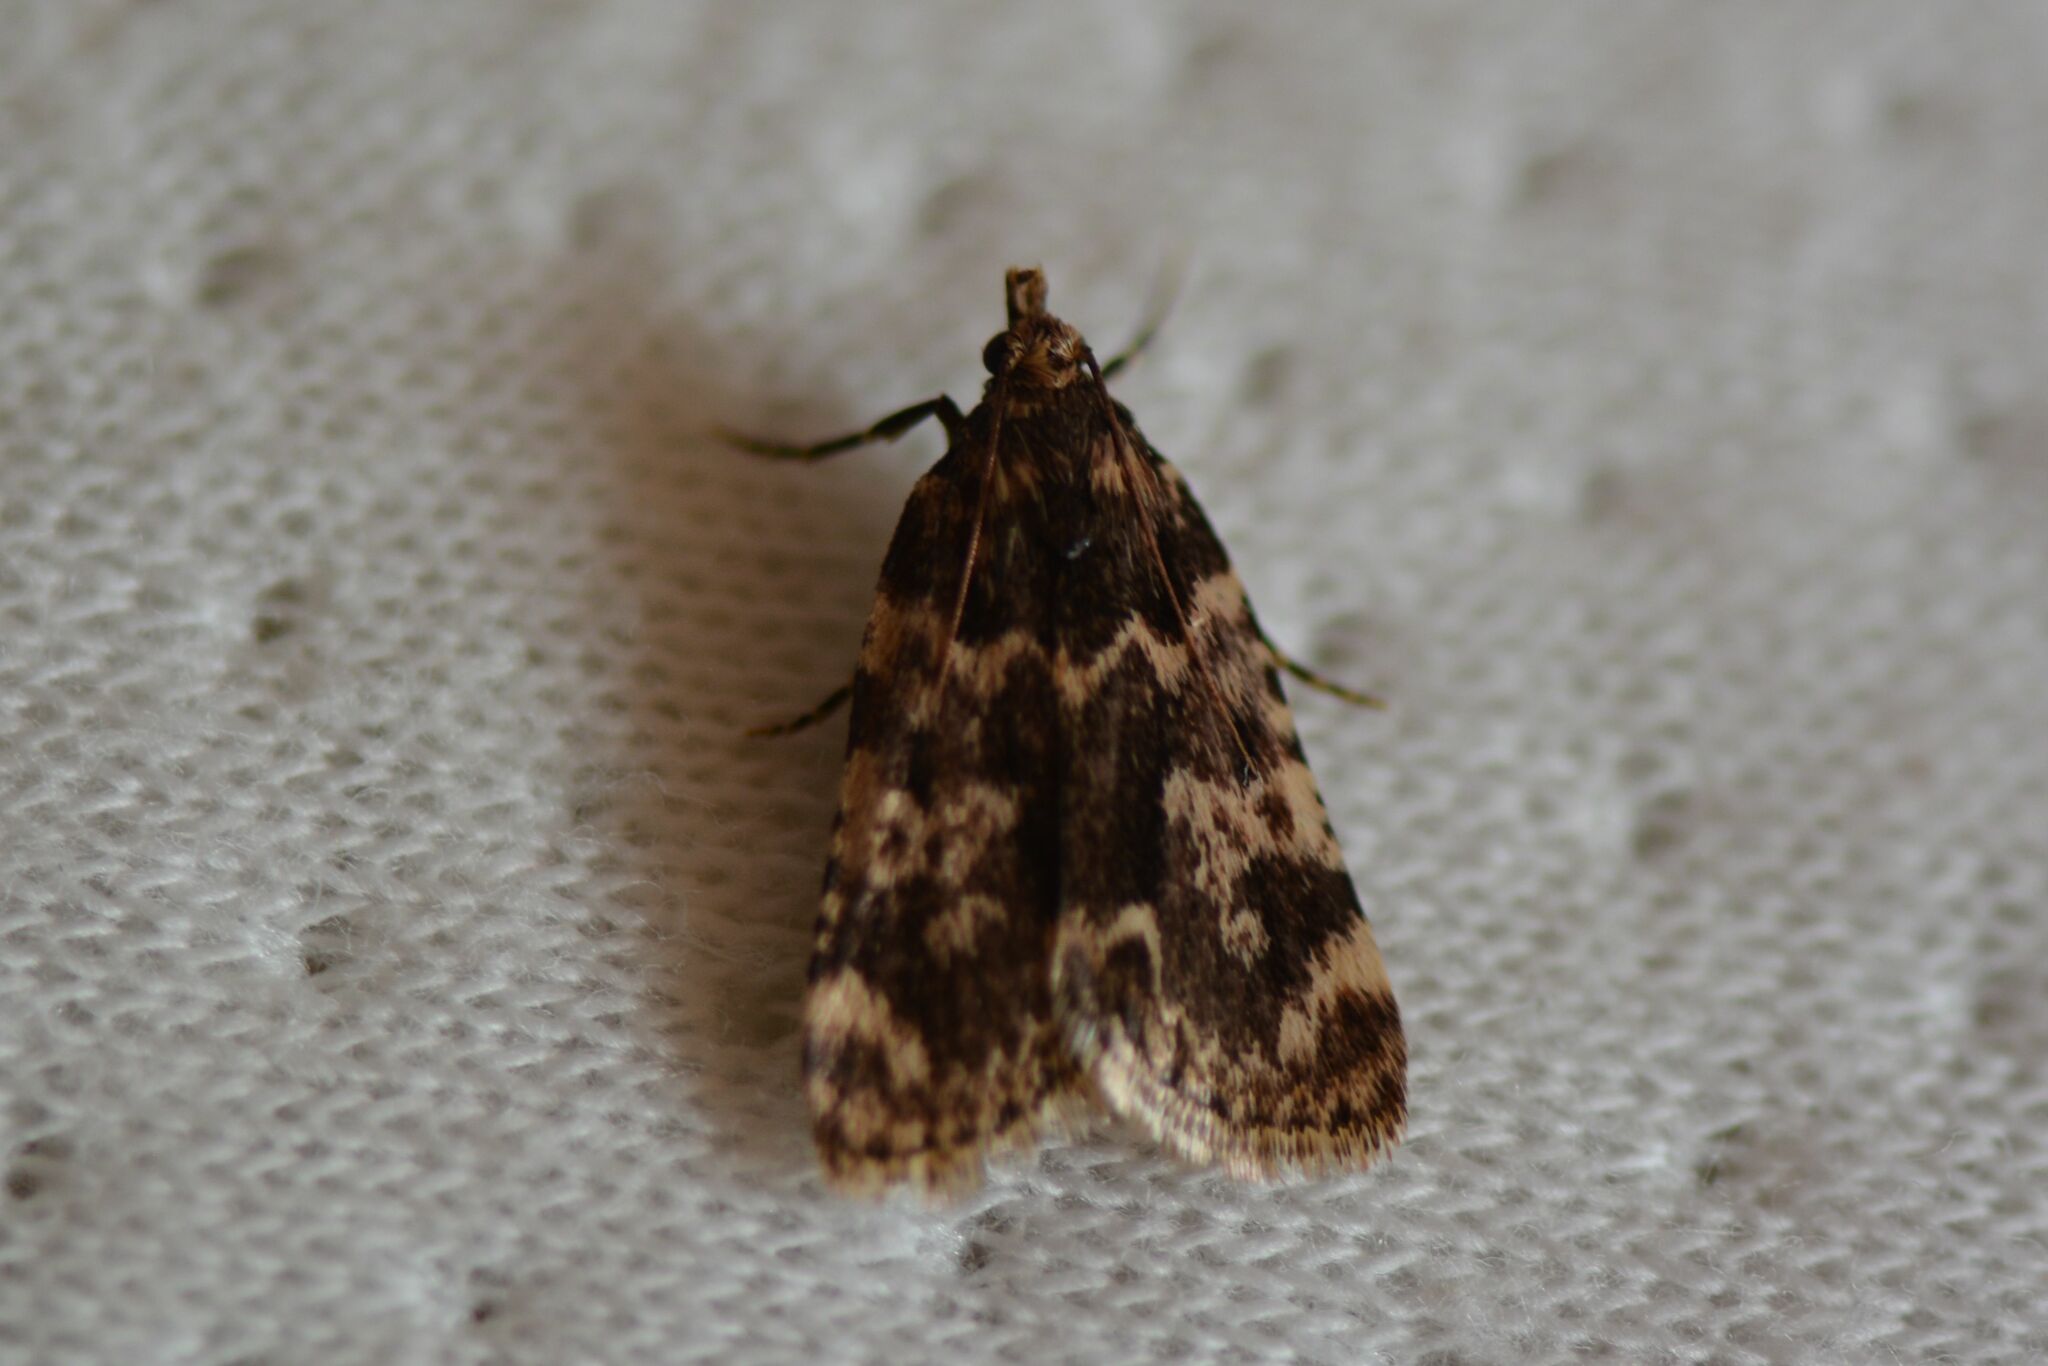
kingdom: Animalia
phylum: Arthropoda
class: Insecta
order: Lepidoptera
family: Pyralidae
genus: Aglossa
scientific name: Aglossa caprealis
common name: Small tabby
